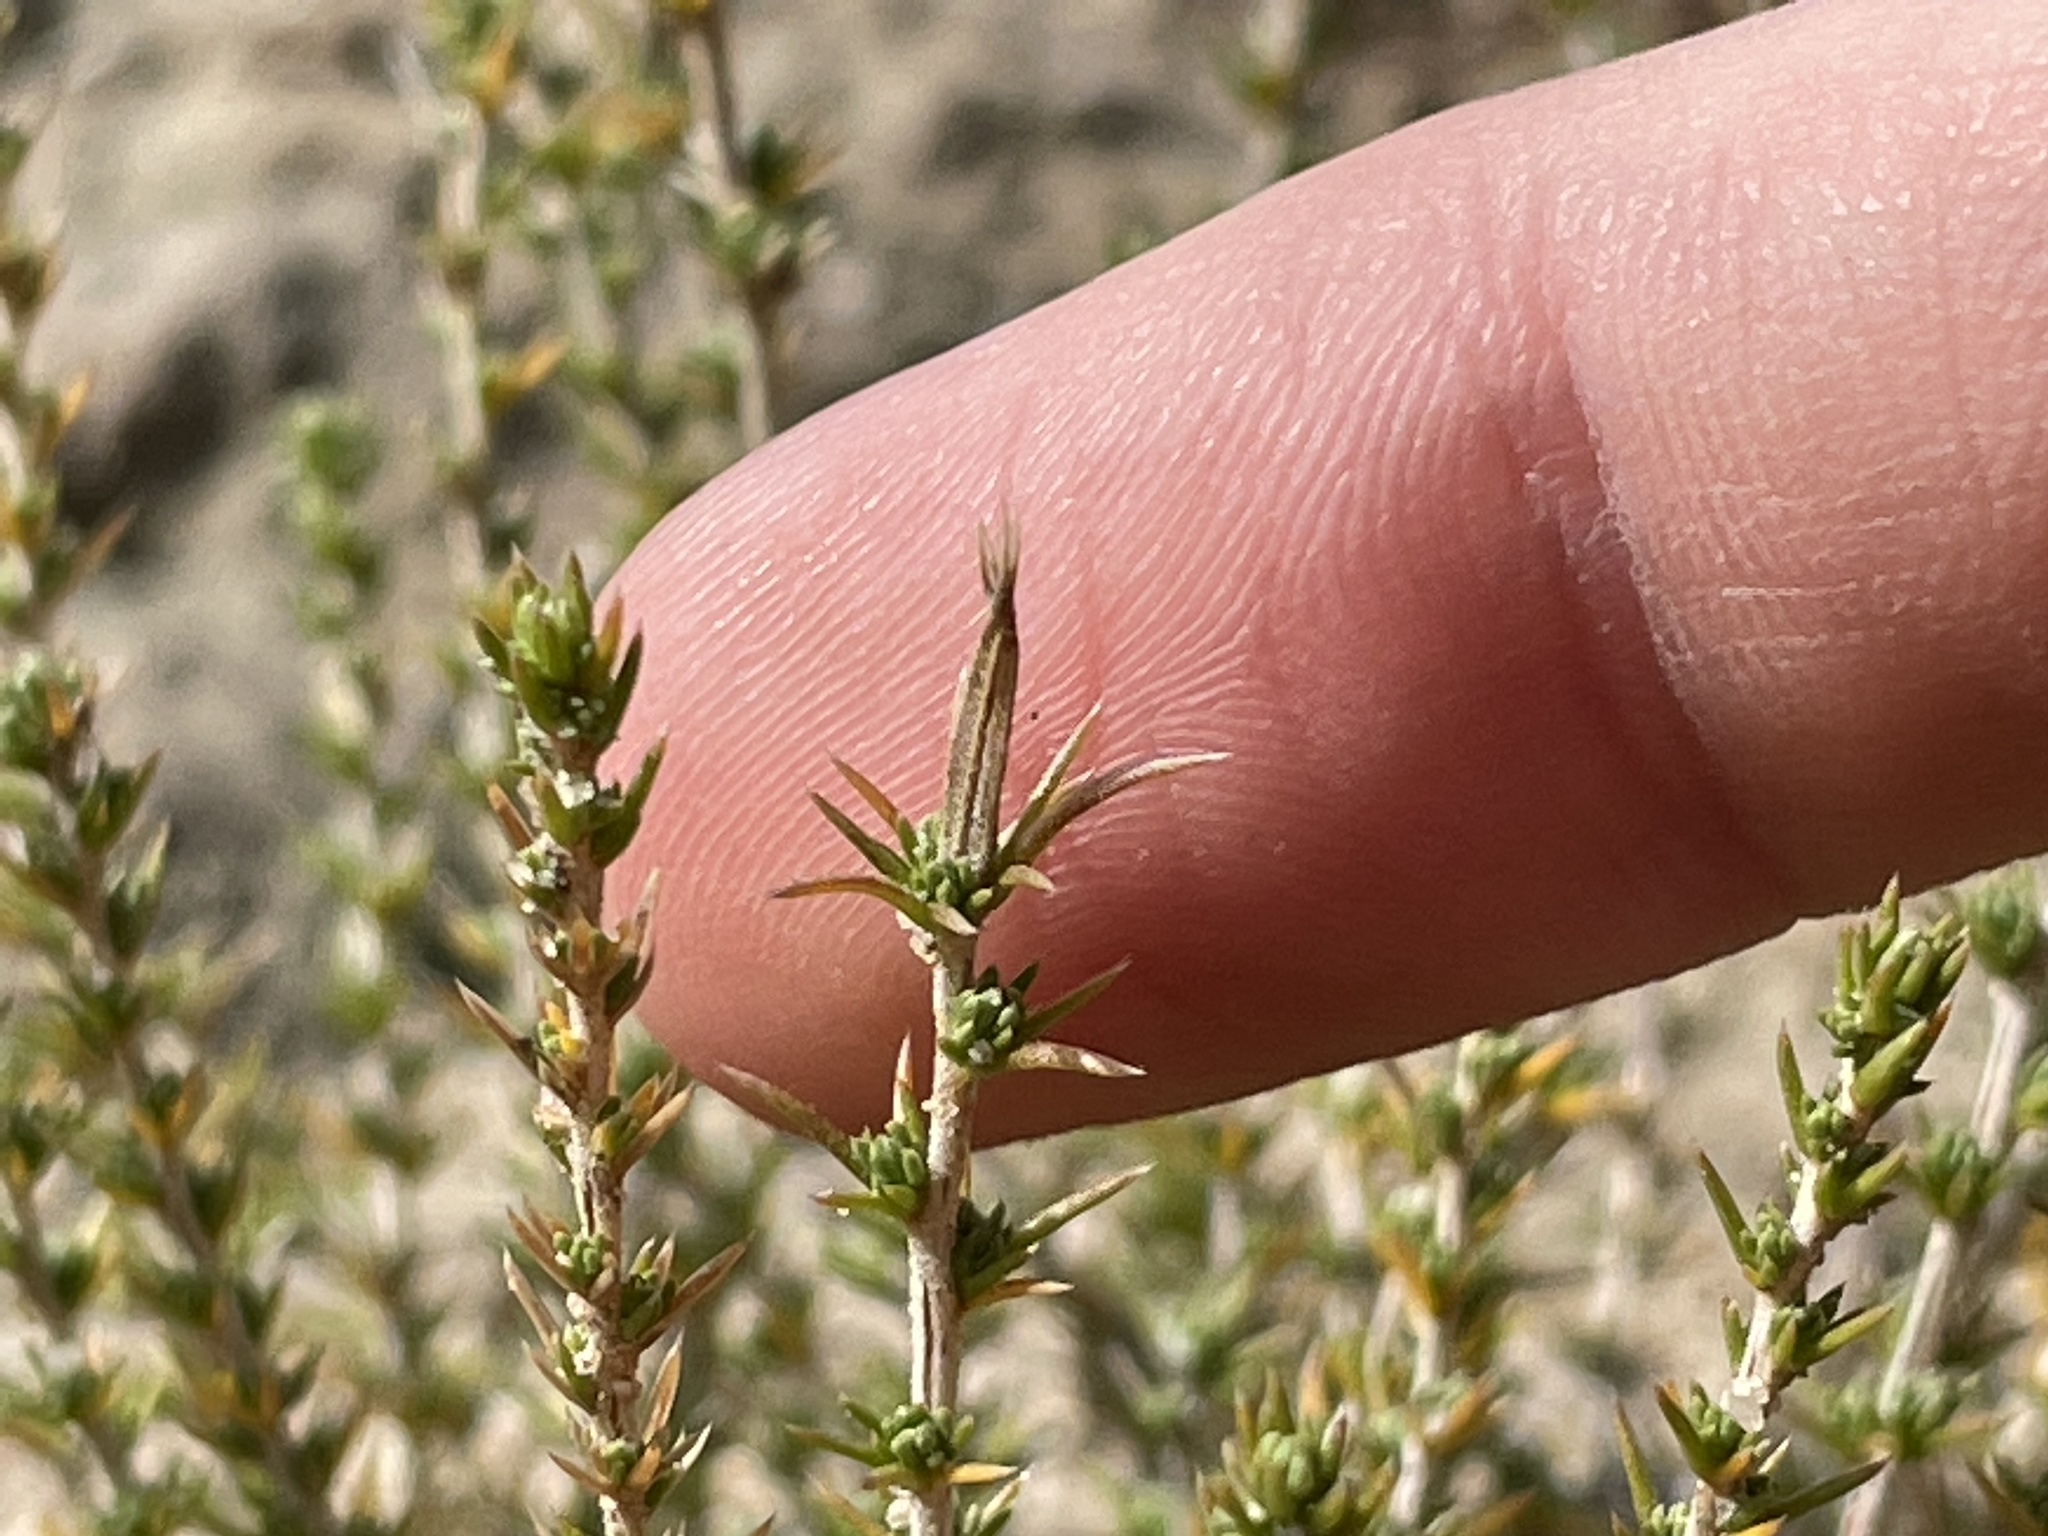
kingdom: Plantae
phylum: Tracheophyta
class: Magnoliopsida
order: Ericales
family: Polemoniaceae
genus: Linanthus
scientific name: Linanthus pungens
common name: Granite prickly phlox
